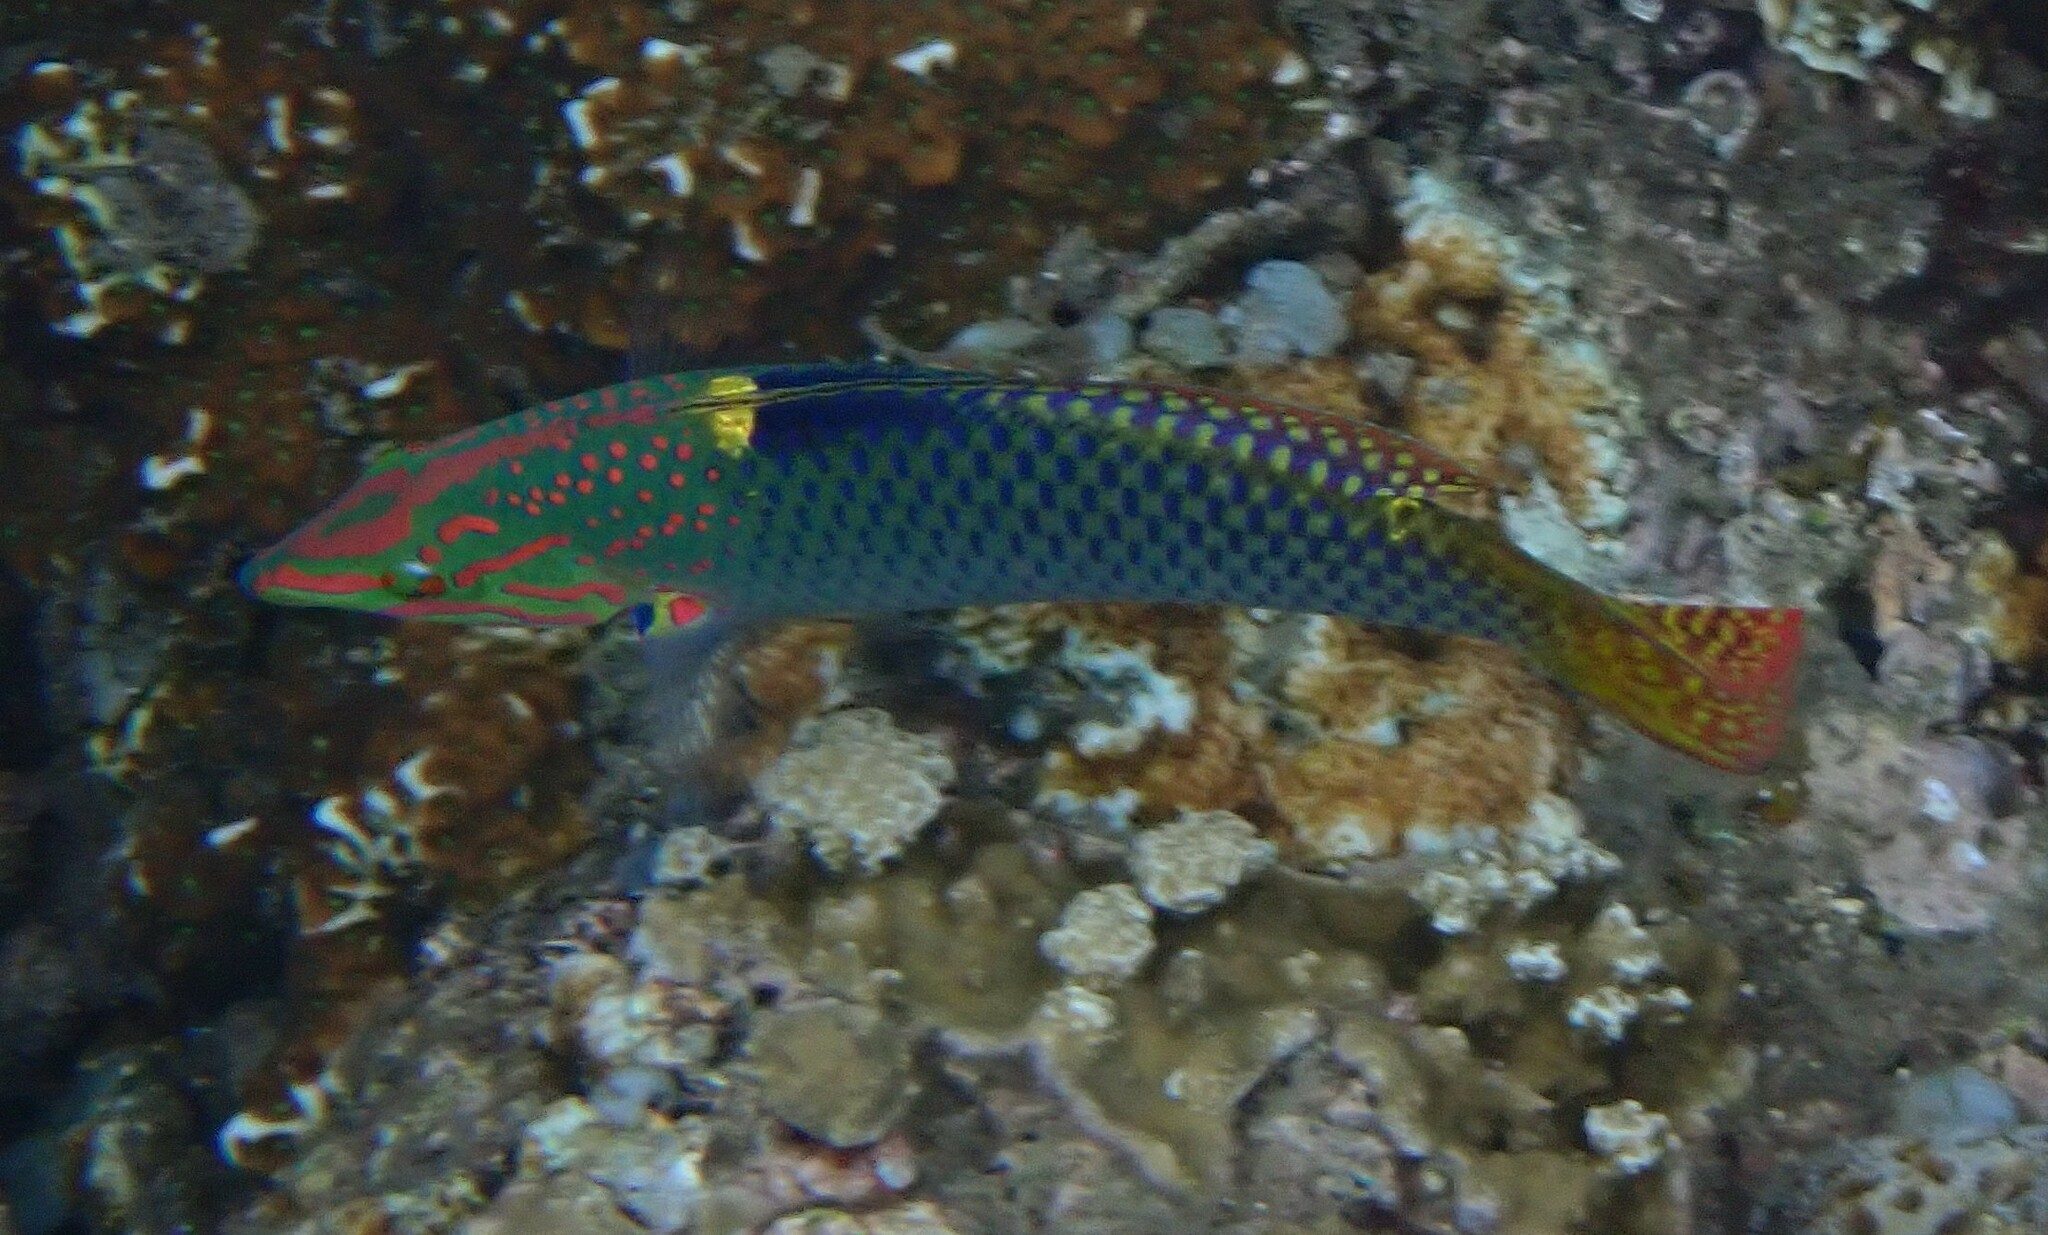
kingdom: Animalia
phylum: Chordata
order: Perciformes
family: Labridae
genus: Halichoeres
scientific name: Halichoeres hortulanus
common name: Checkerboard wrasse
